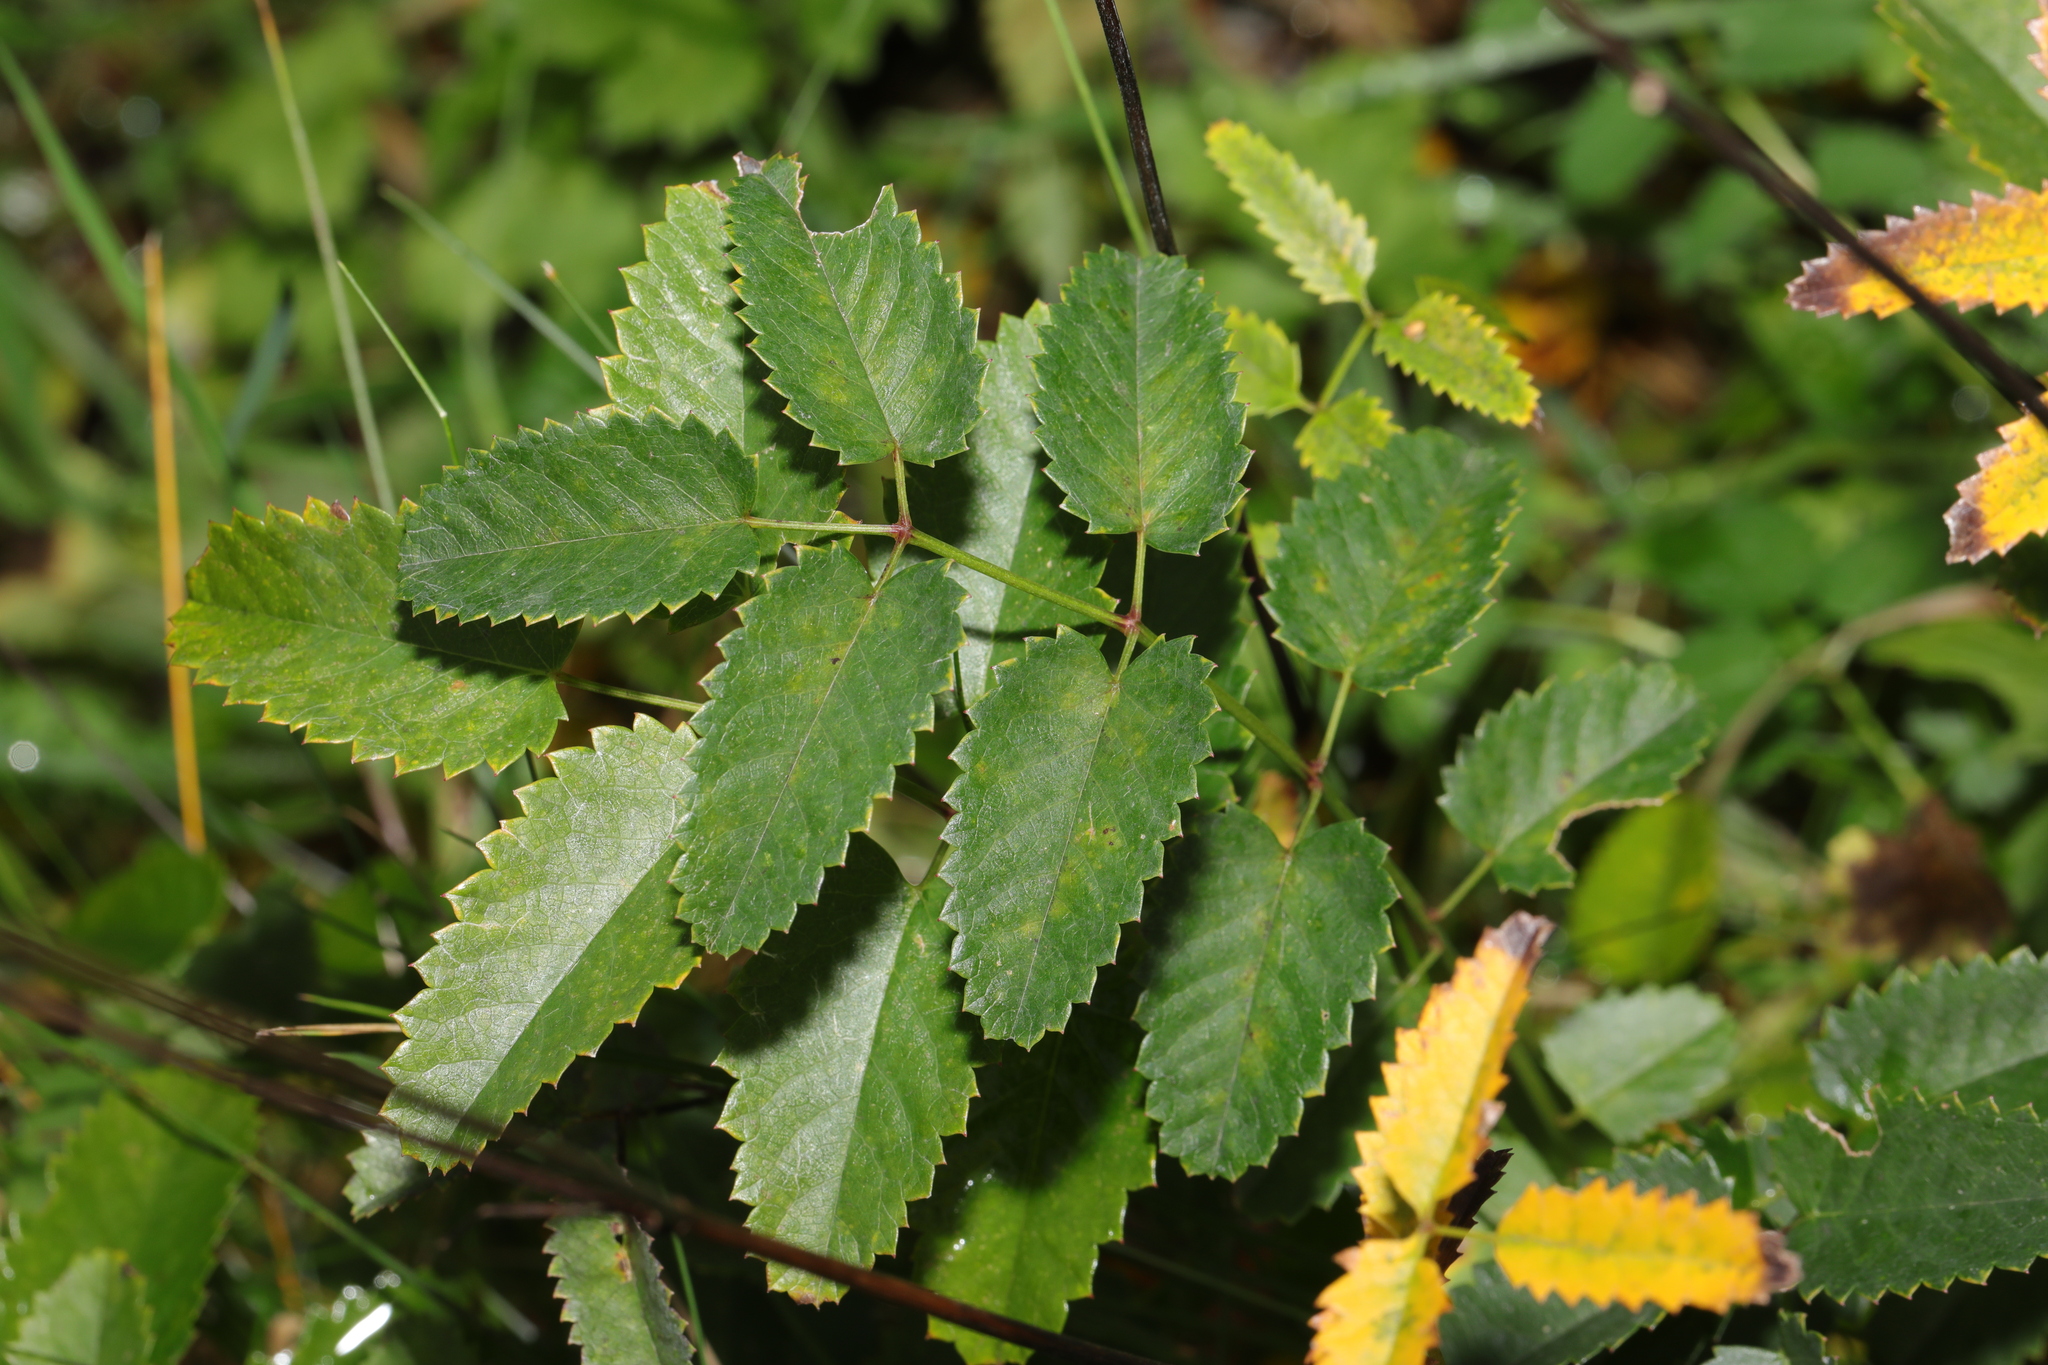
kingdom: Plantae
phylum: Tracheophyta
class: Magnoliopsida
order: Rosales
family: Rosaceae
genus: Sanguisorba
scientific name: Sanguisorba officinalis
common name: Great burnet
